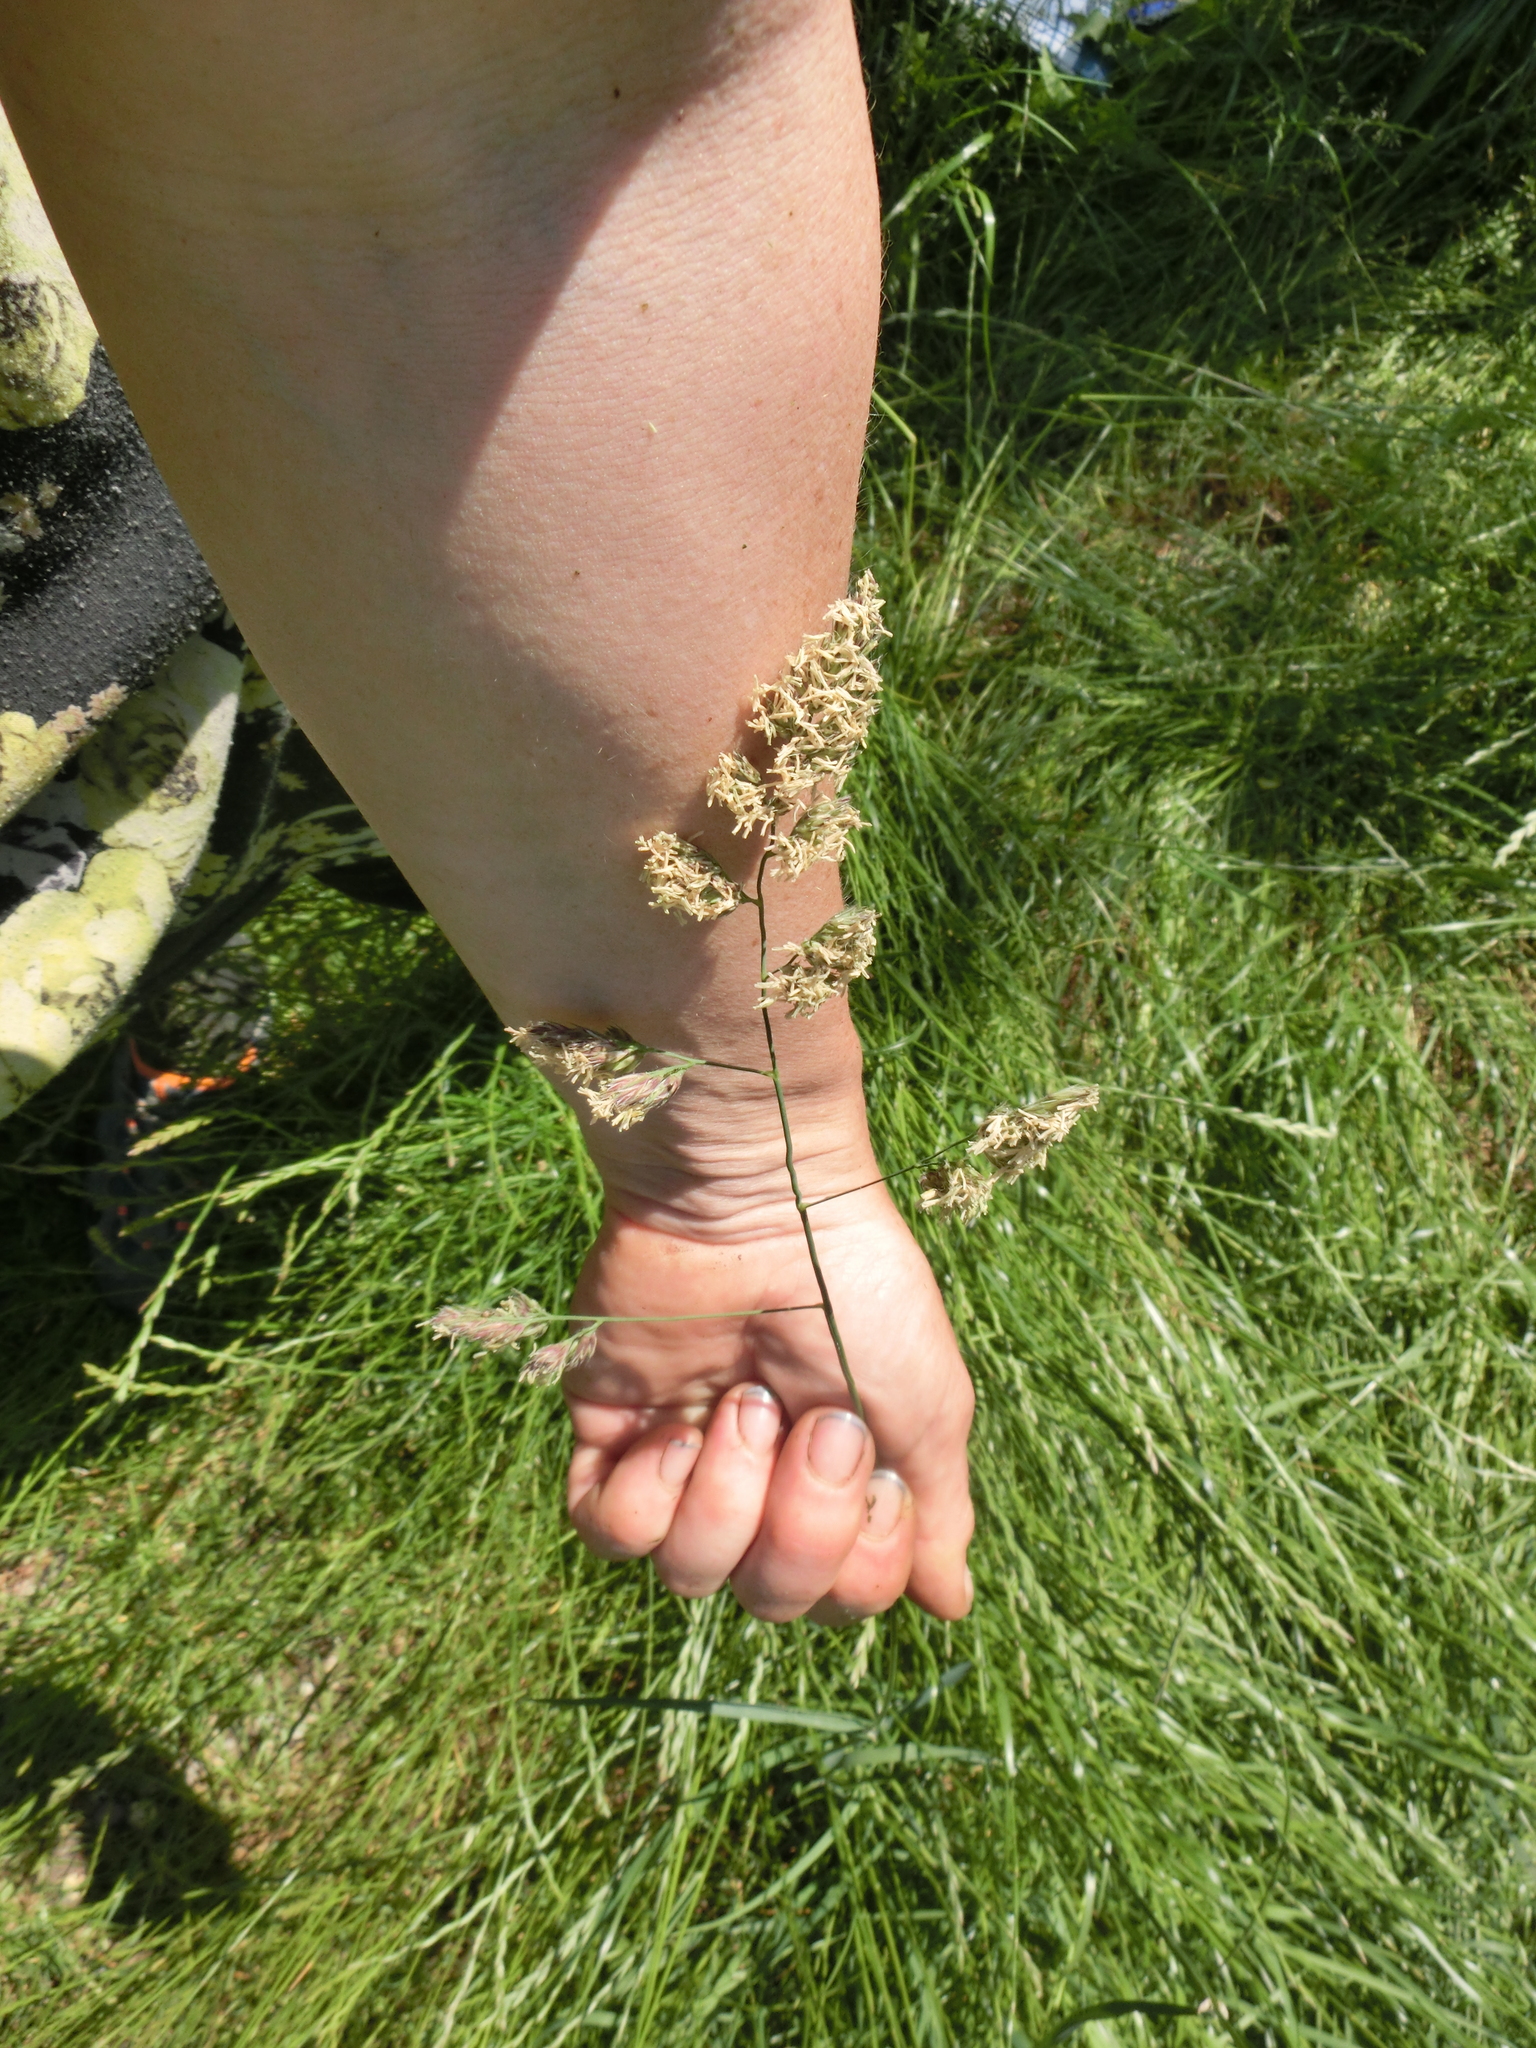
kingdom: Plantae
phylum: Tracheophyta
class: Liliopsida
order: Poales
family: Poaceae
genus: Dactylis
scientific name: Dactylis glomerata
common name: Orchardgrass
